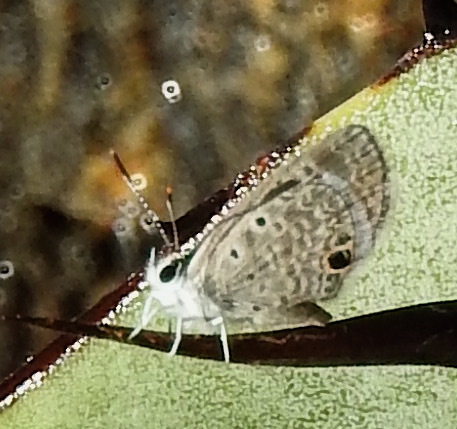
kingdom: Animalia
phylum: Arthropoda
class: Insecta
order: Lepidoptera
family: Lycaenidae
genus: Hemiargus
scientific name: Hemiargus ceraunus
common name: Ceraunus blue
